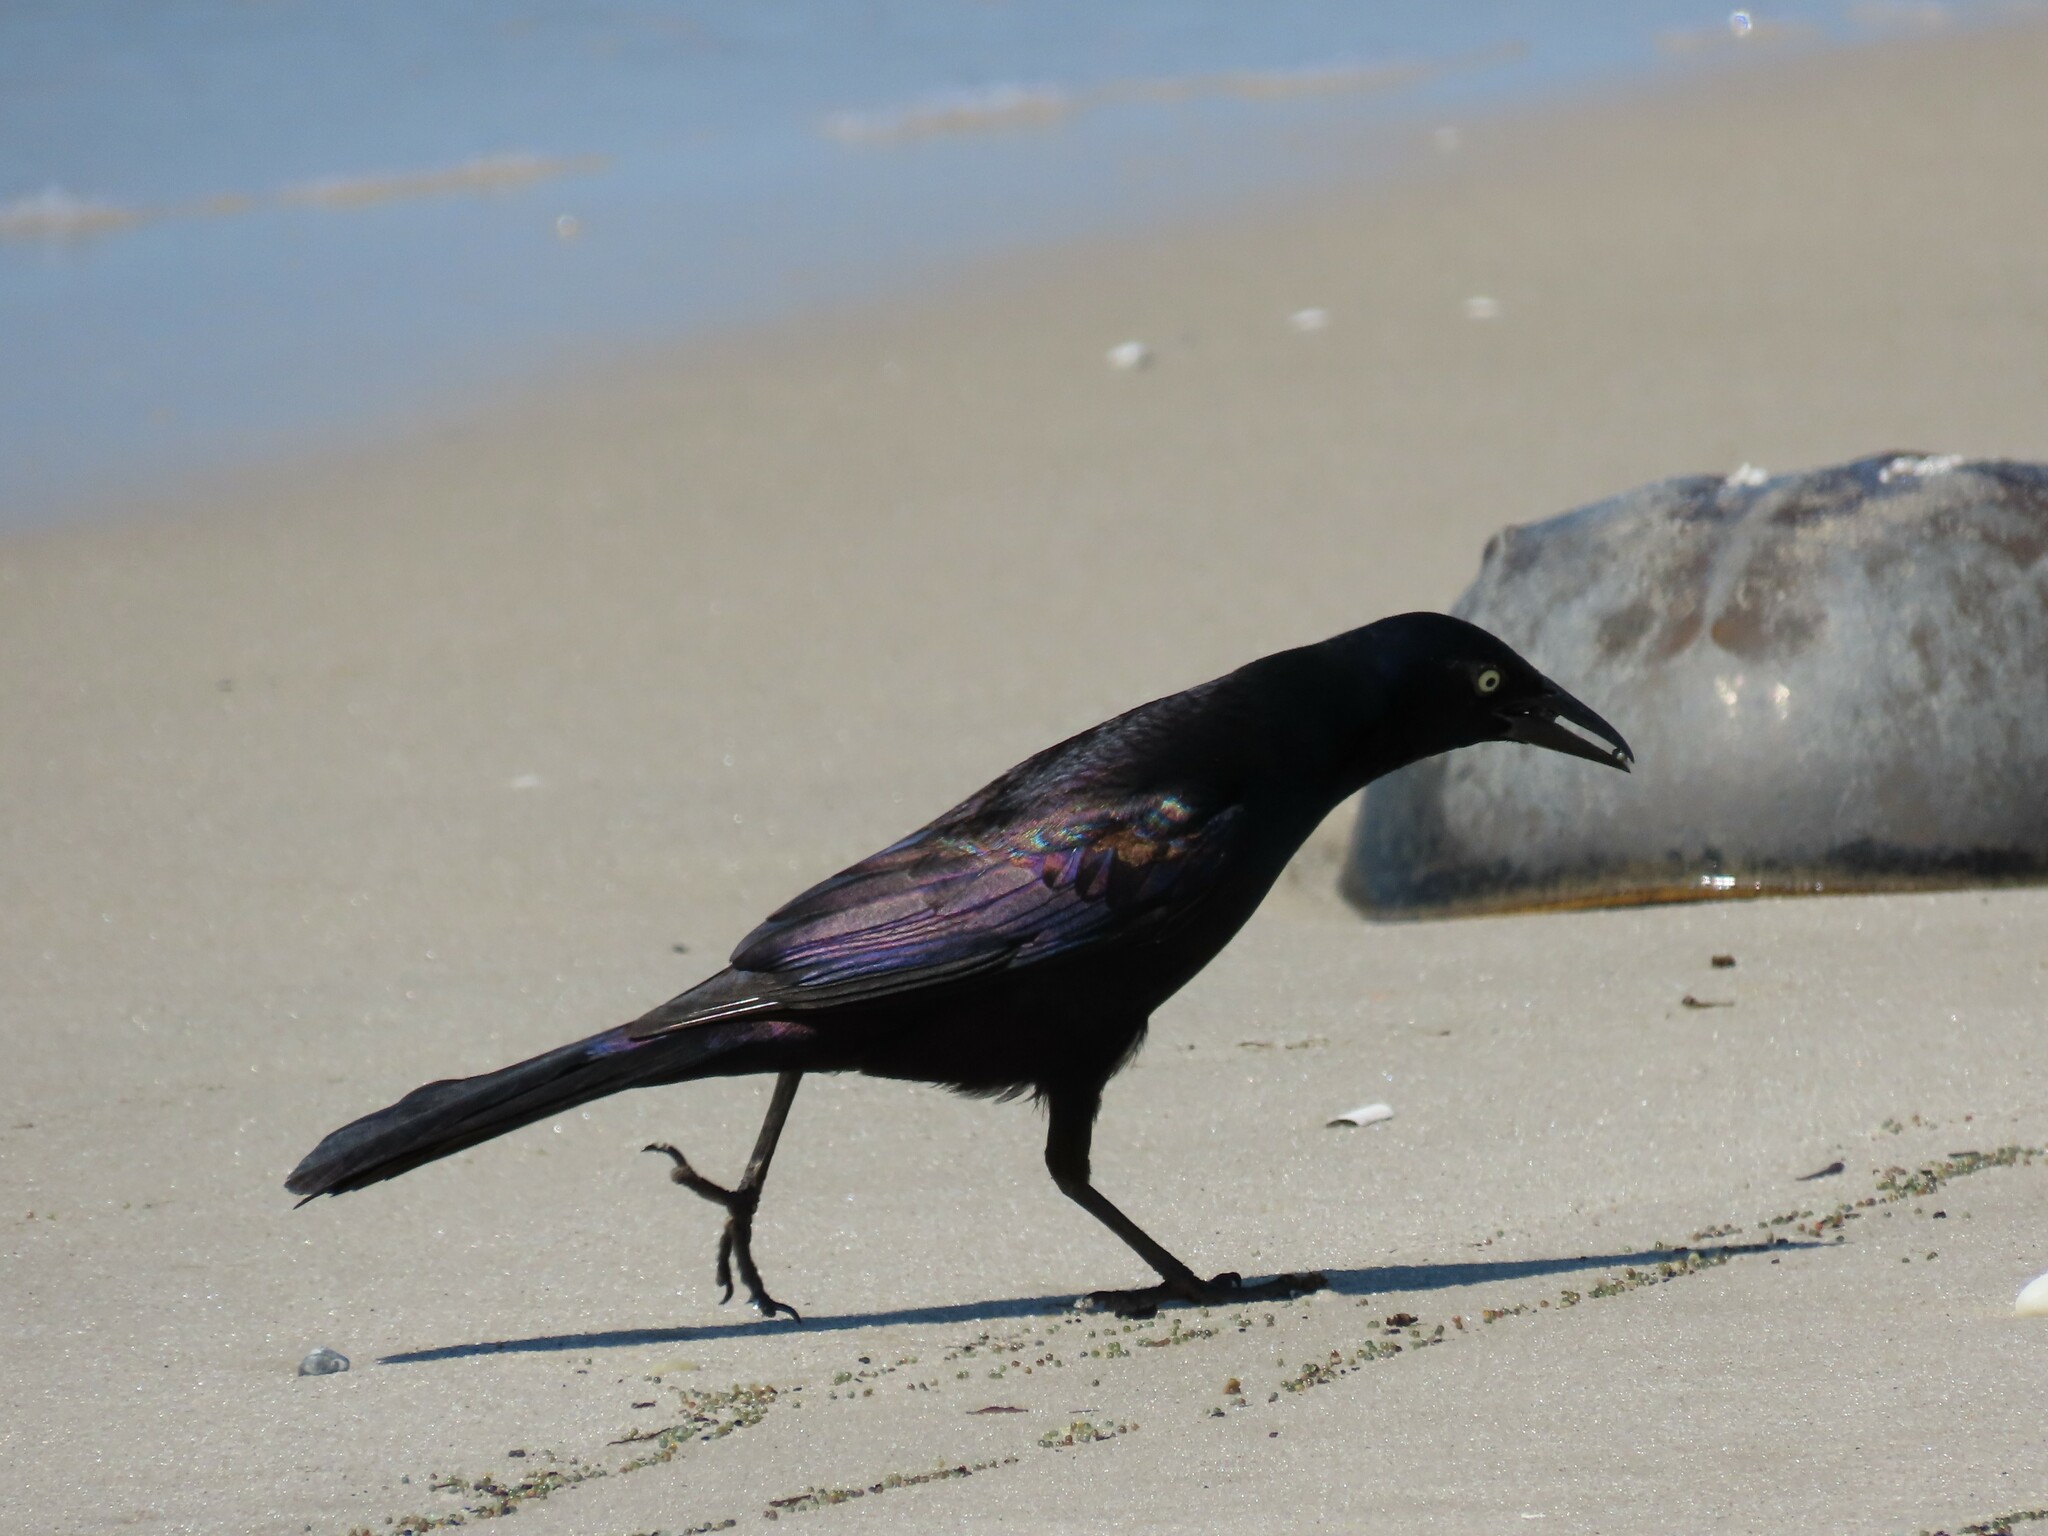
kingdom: Animalia
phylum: Chordata
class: Aves
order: Passeriformes
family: Icteridae
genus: Quiscalus
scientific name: Quiscalus quiscula
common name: Common grackle
